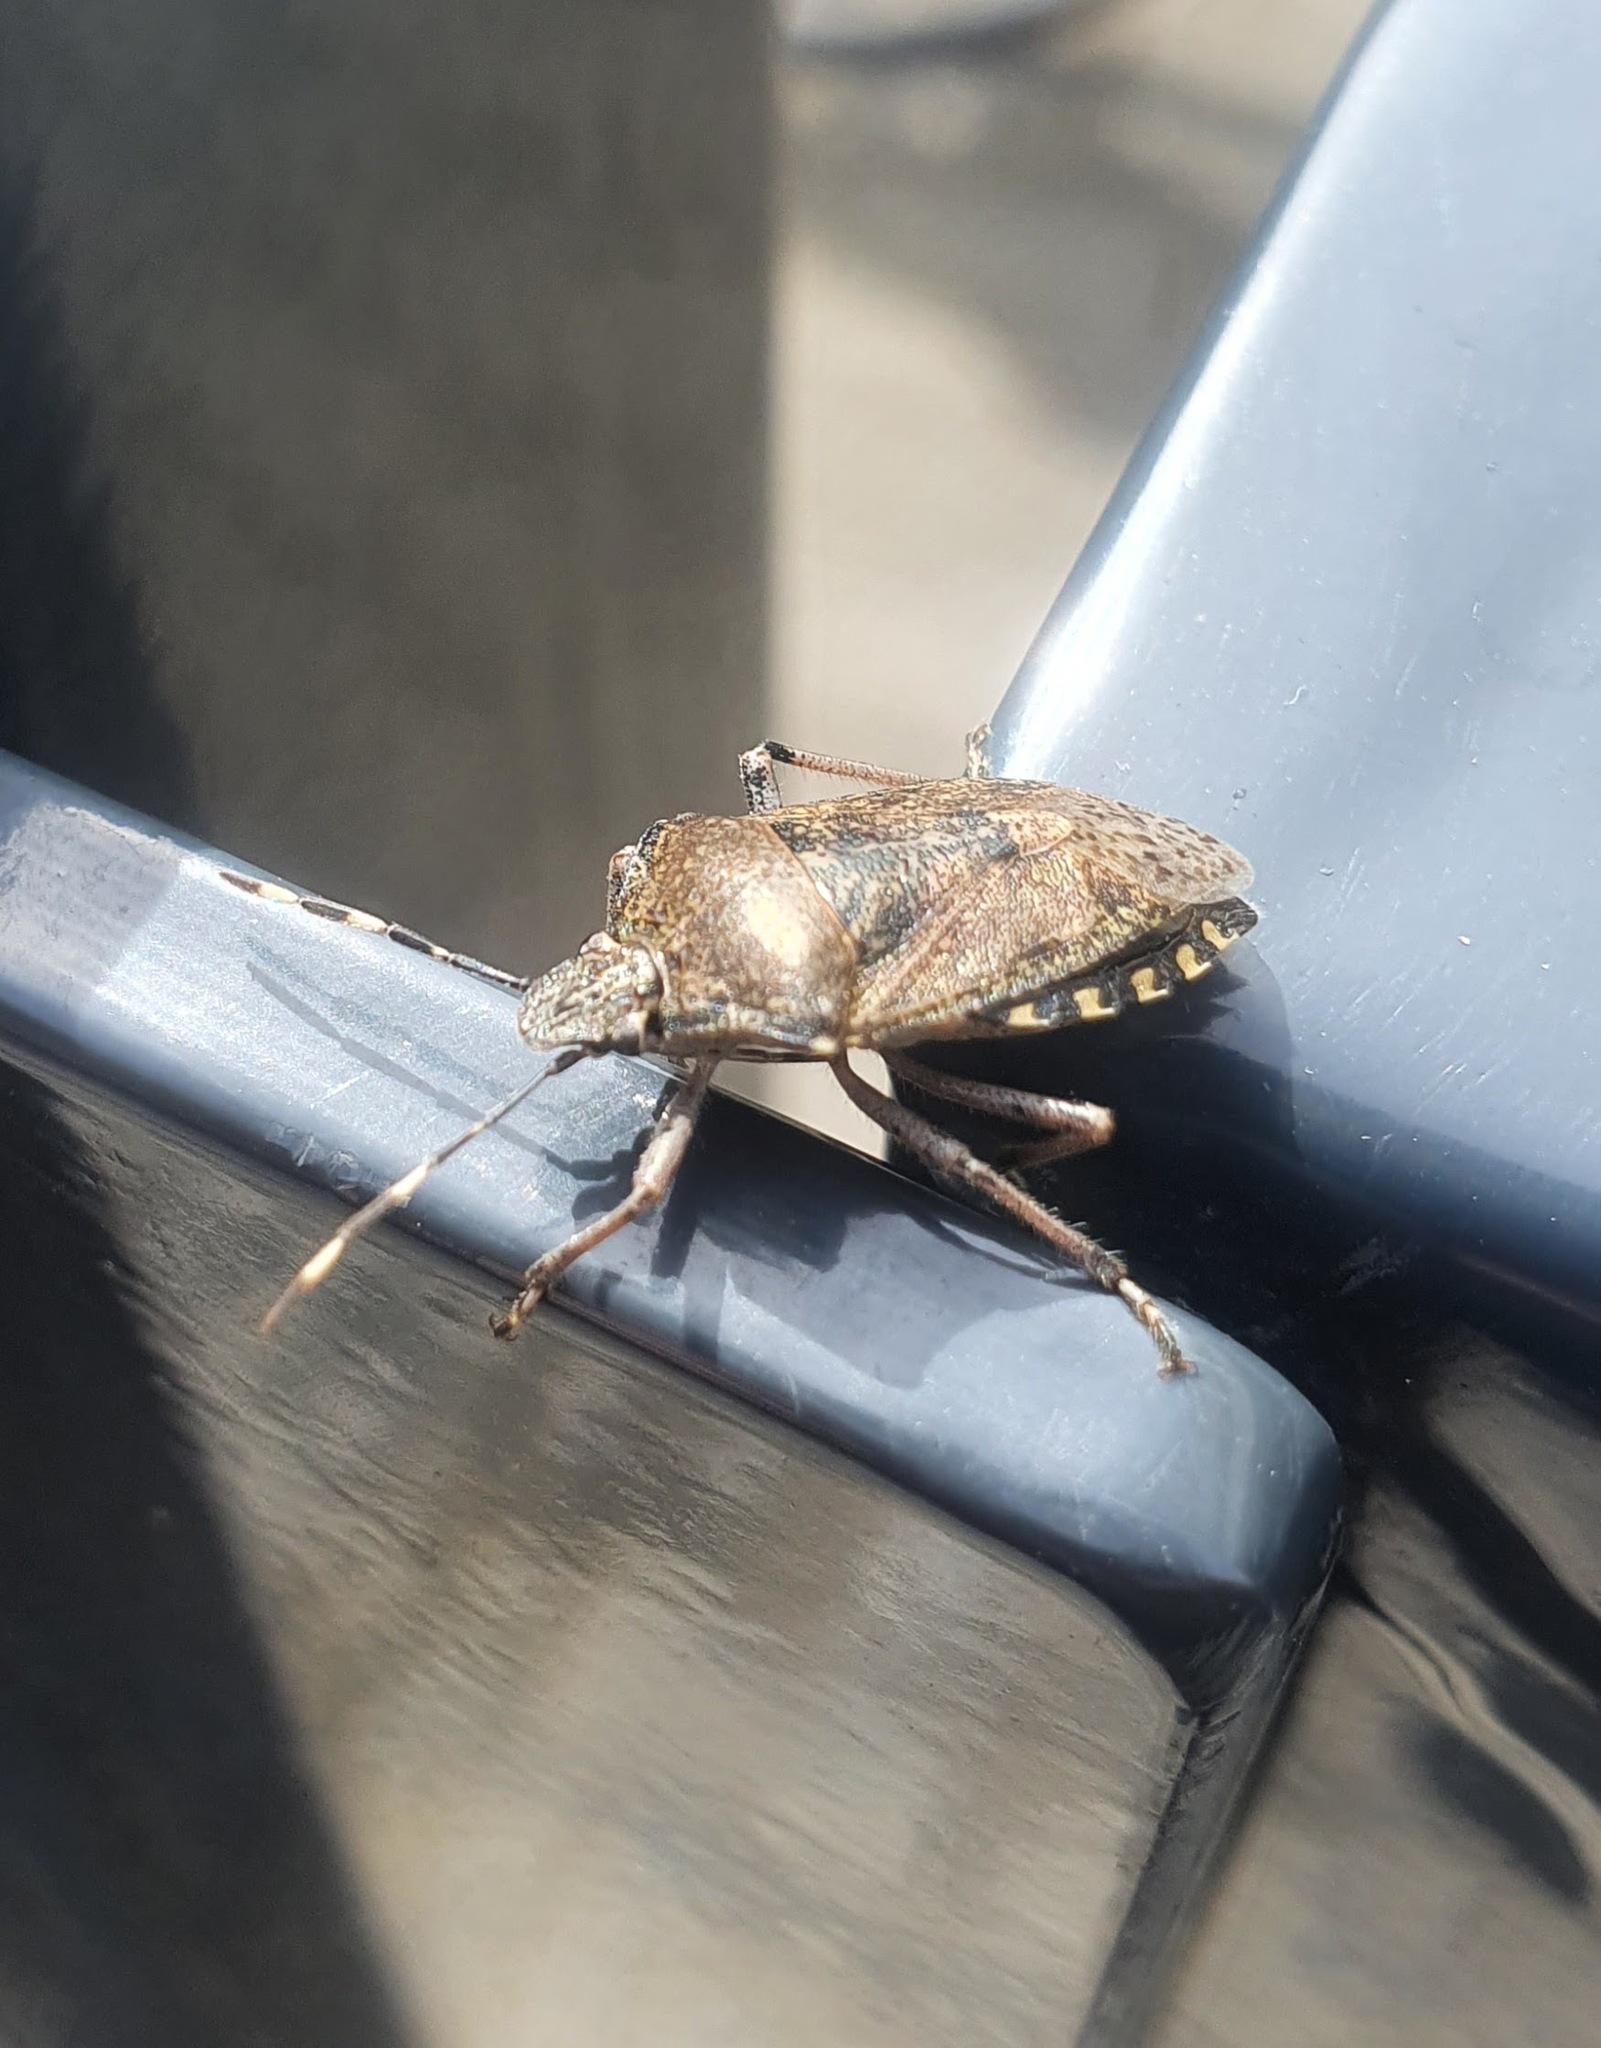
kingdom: Animalia
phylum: Arthropoda
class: Insecta
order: Hemiptera
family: Pentatomidae
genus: Rhaphigaster
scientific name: Rhaphigaster nebulosa
